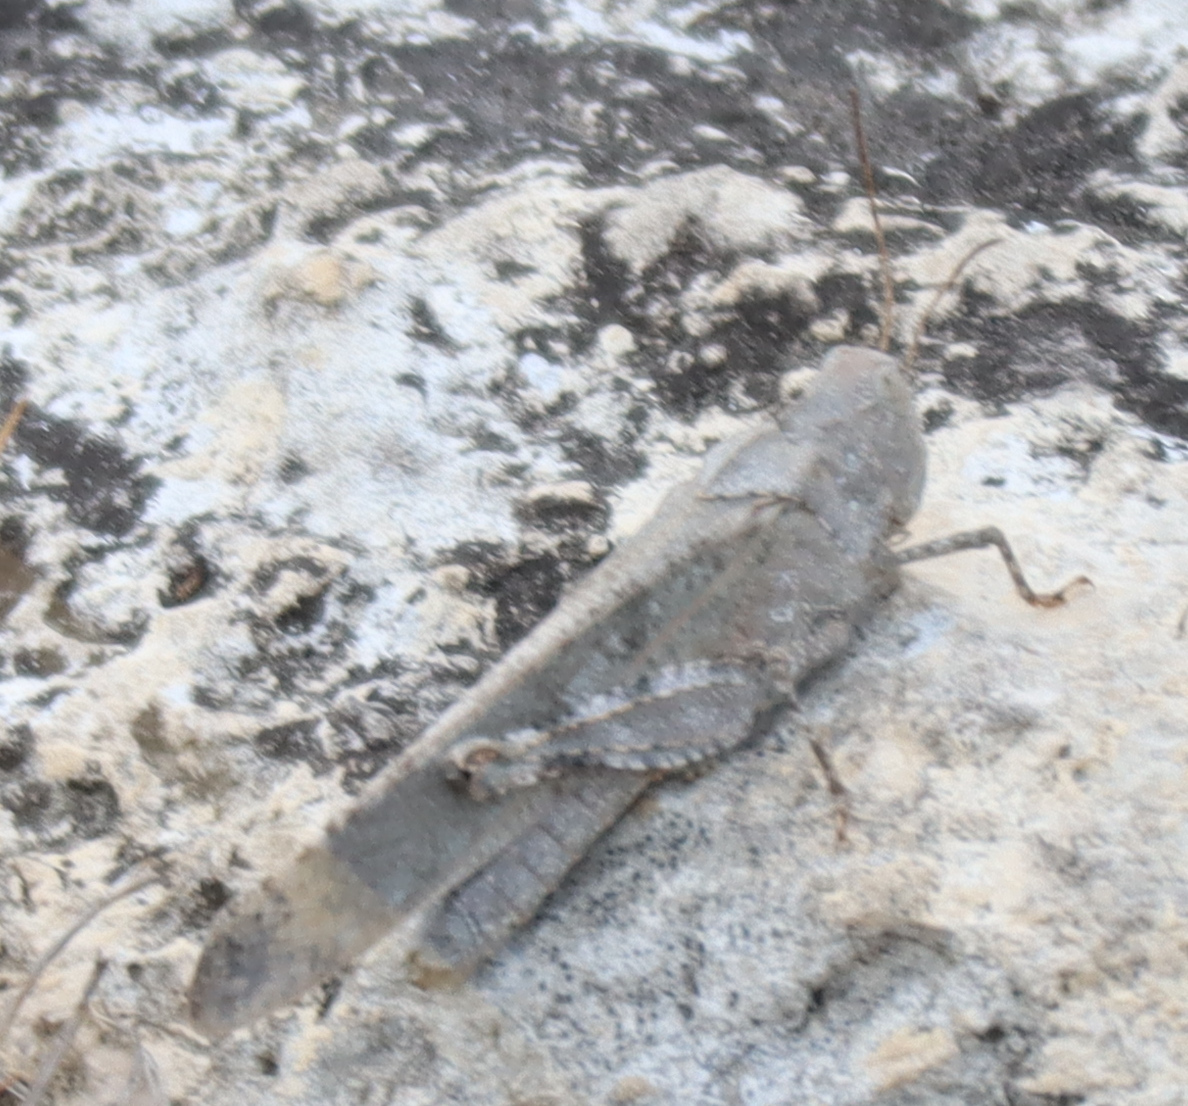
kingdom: Animalia
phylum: Arthropoda
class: Insecta
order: Orthoptera
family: Acrididae
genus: Dissosteira
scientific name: Dissosteira carolina
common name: Carolina grasshopper
